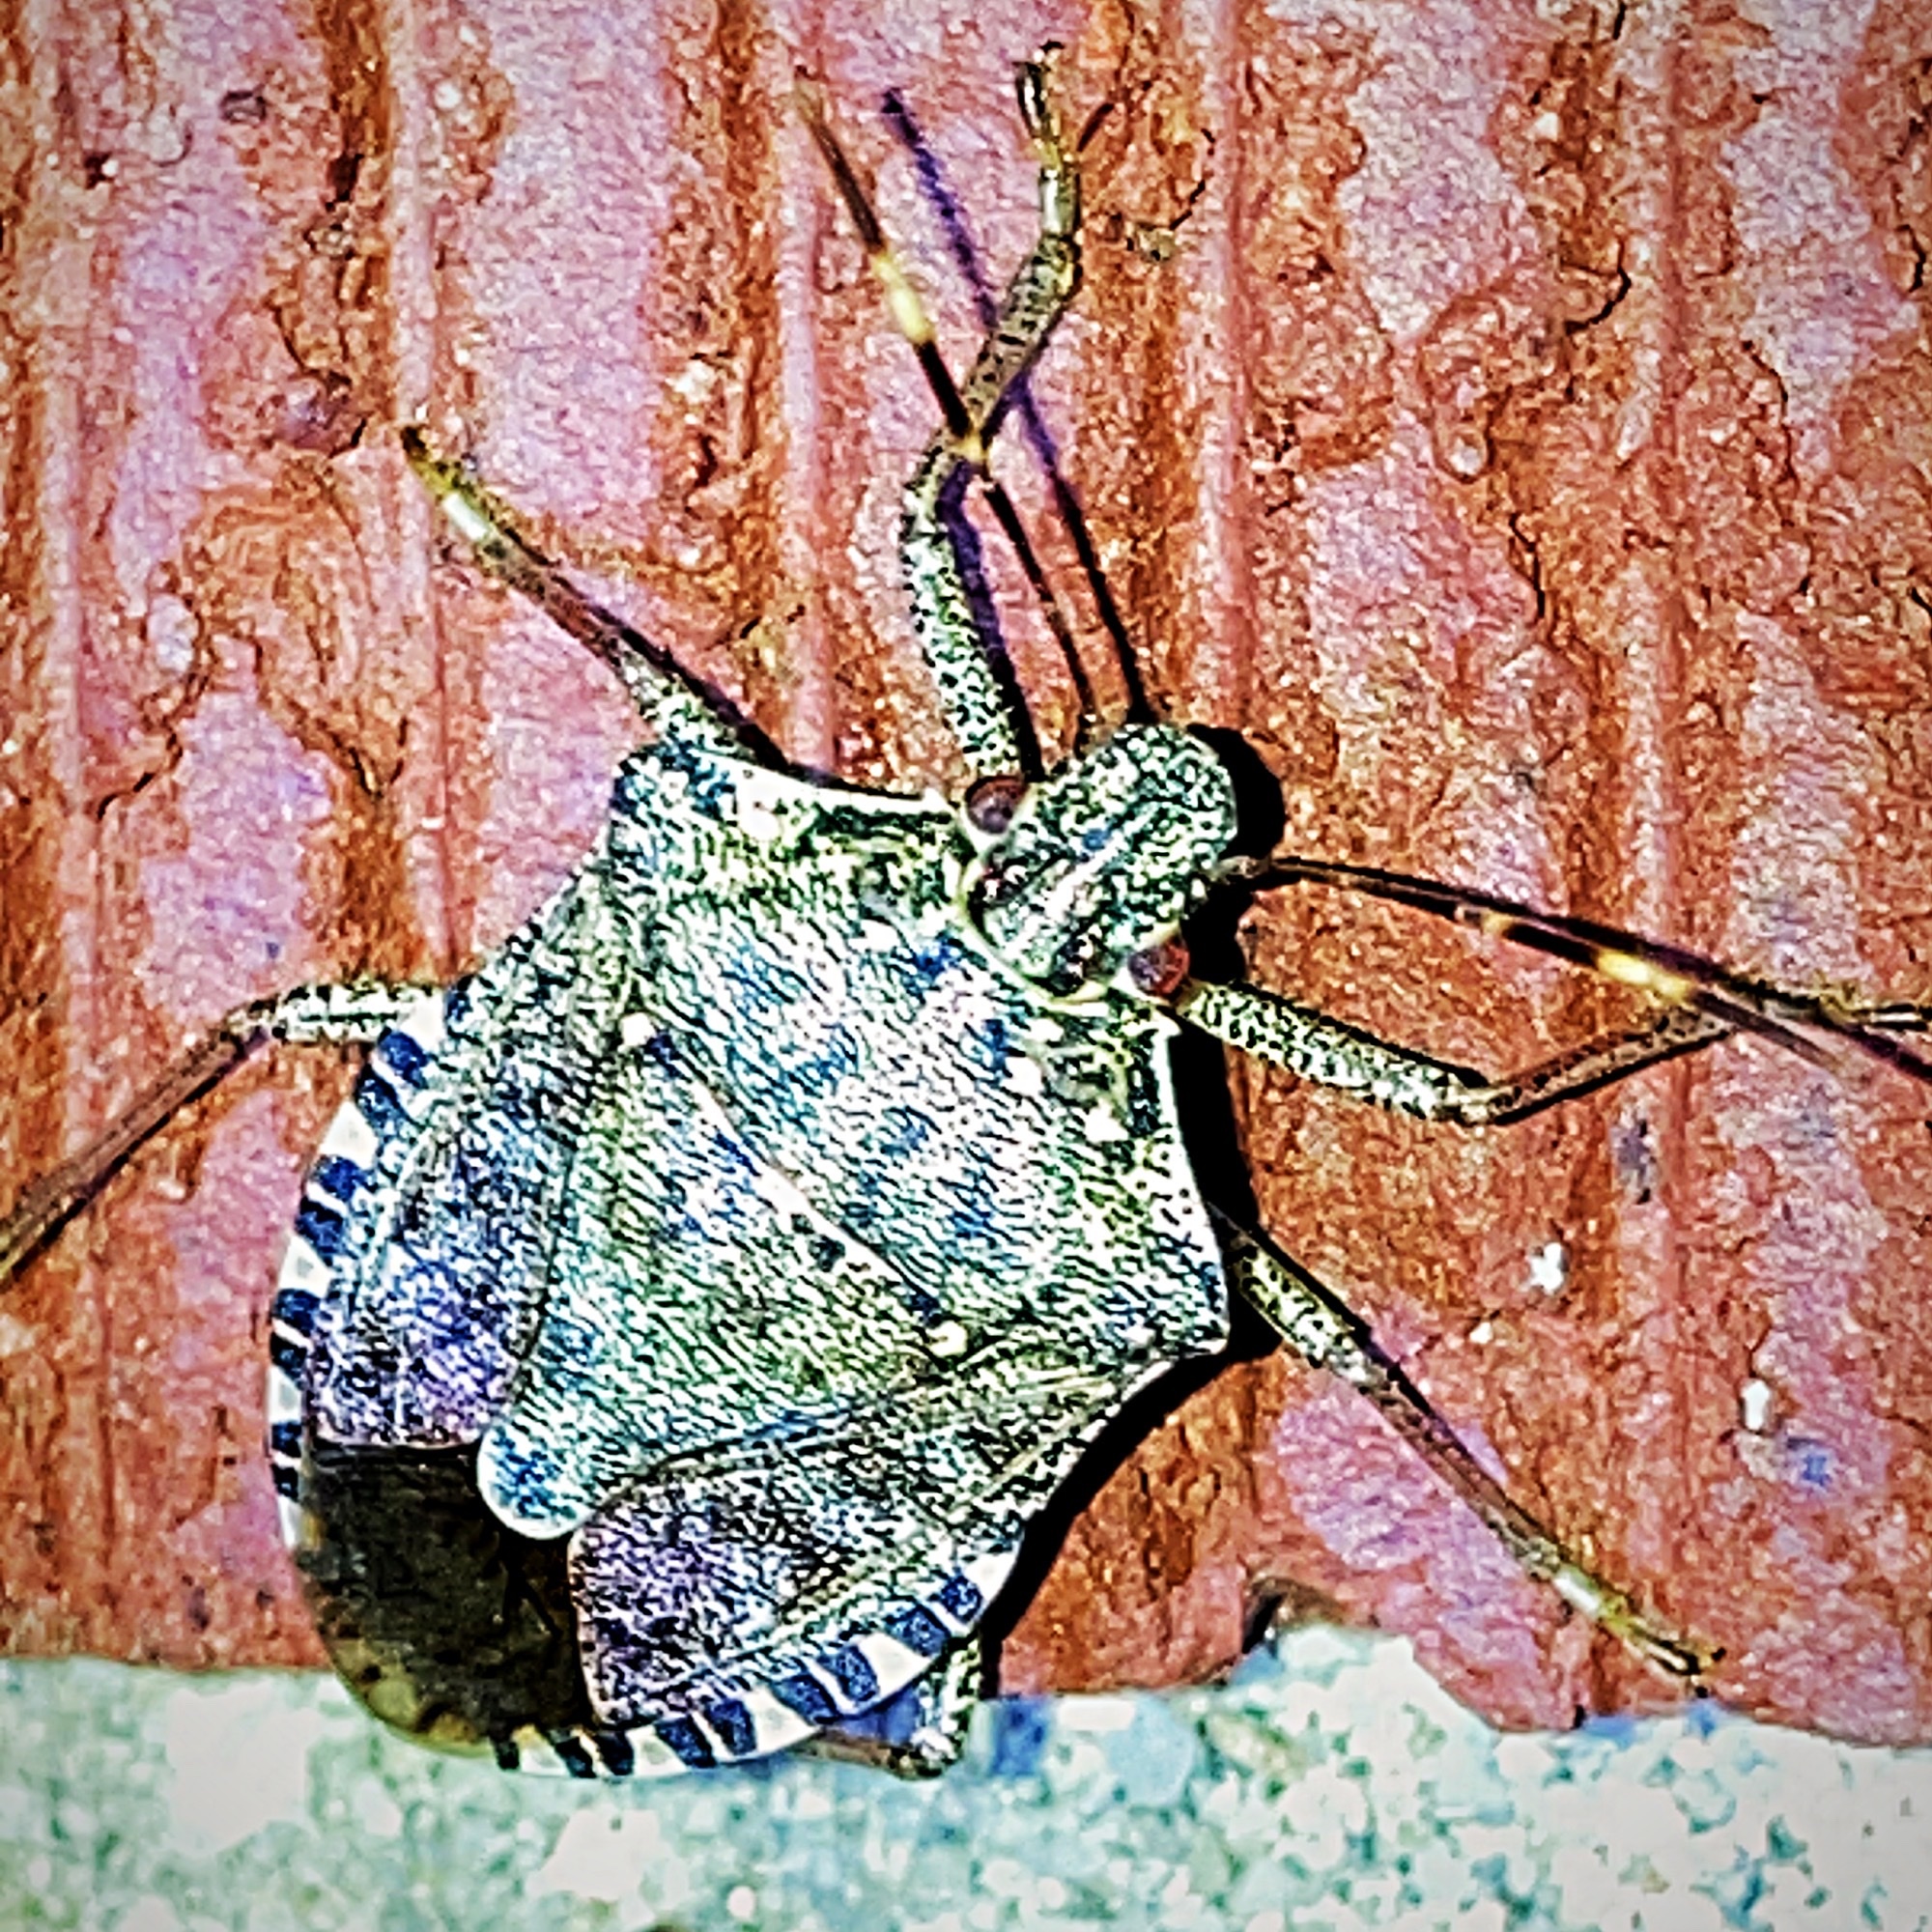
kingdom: Animalia
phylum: Arthropoda
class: Insecta
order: Hemiptera
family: Pentatomidae
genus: Halyomorpha
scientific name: Halyomorpha halys
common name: Brown marmorated stink bug
